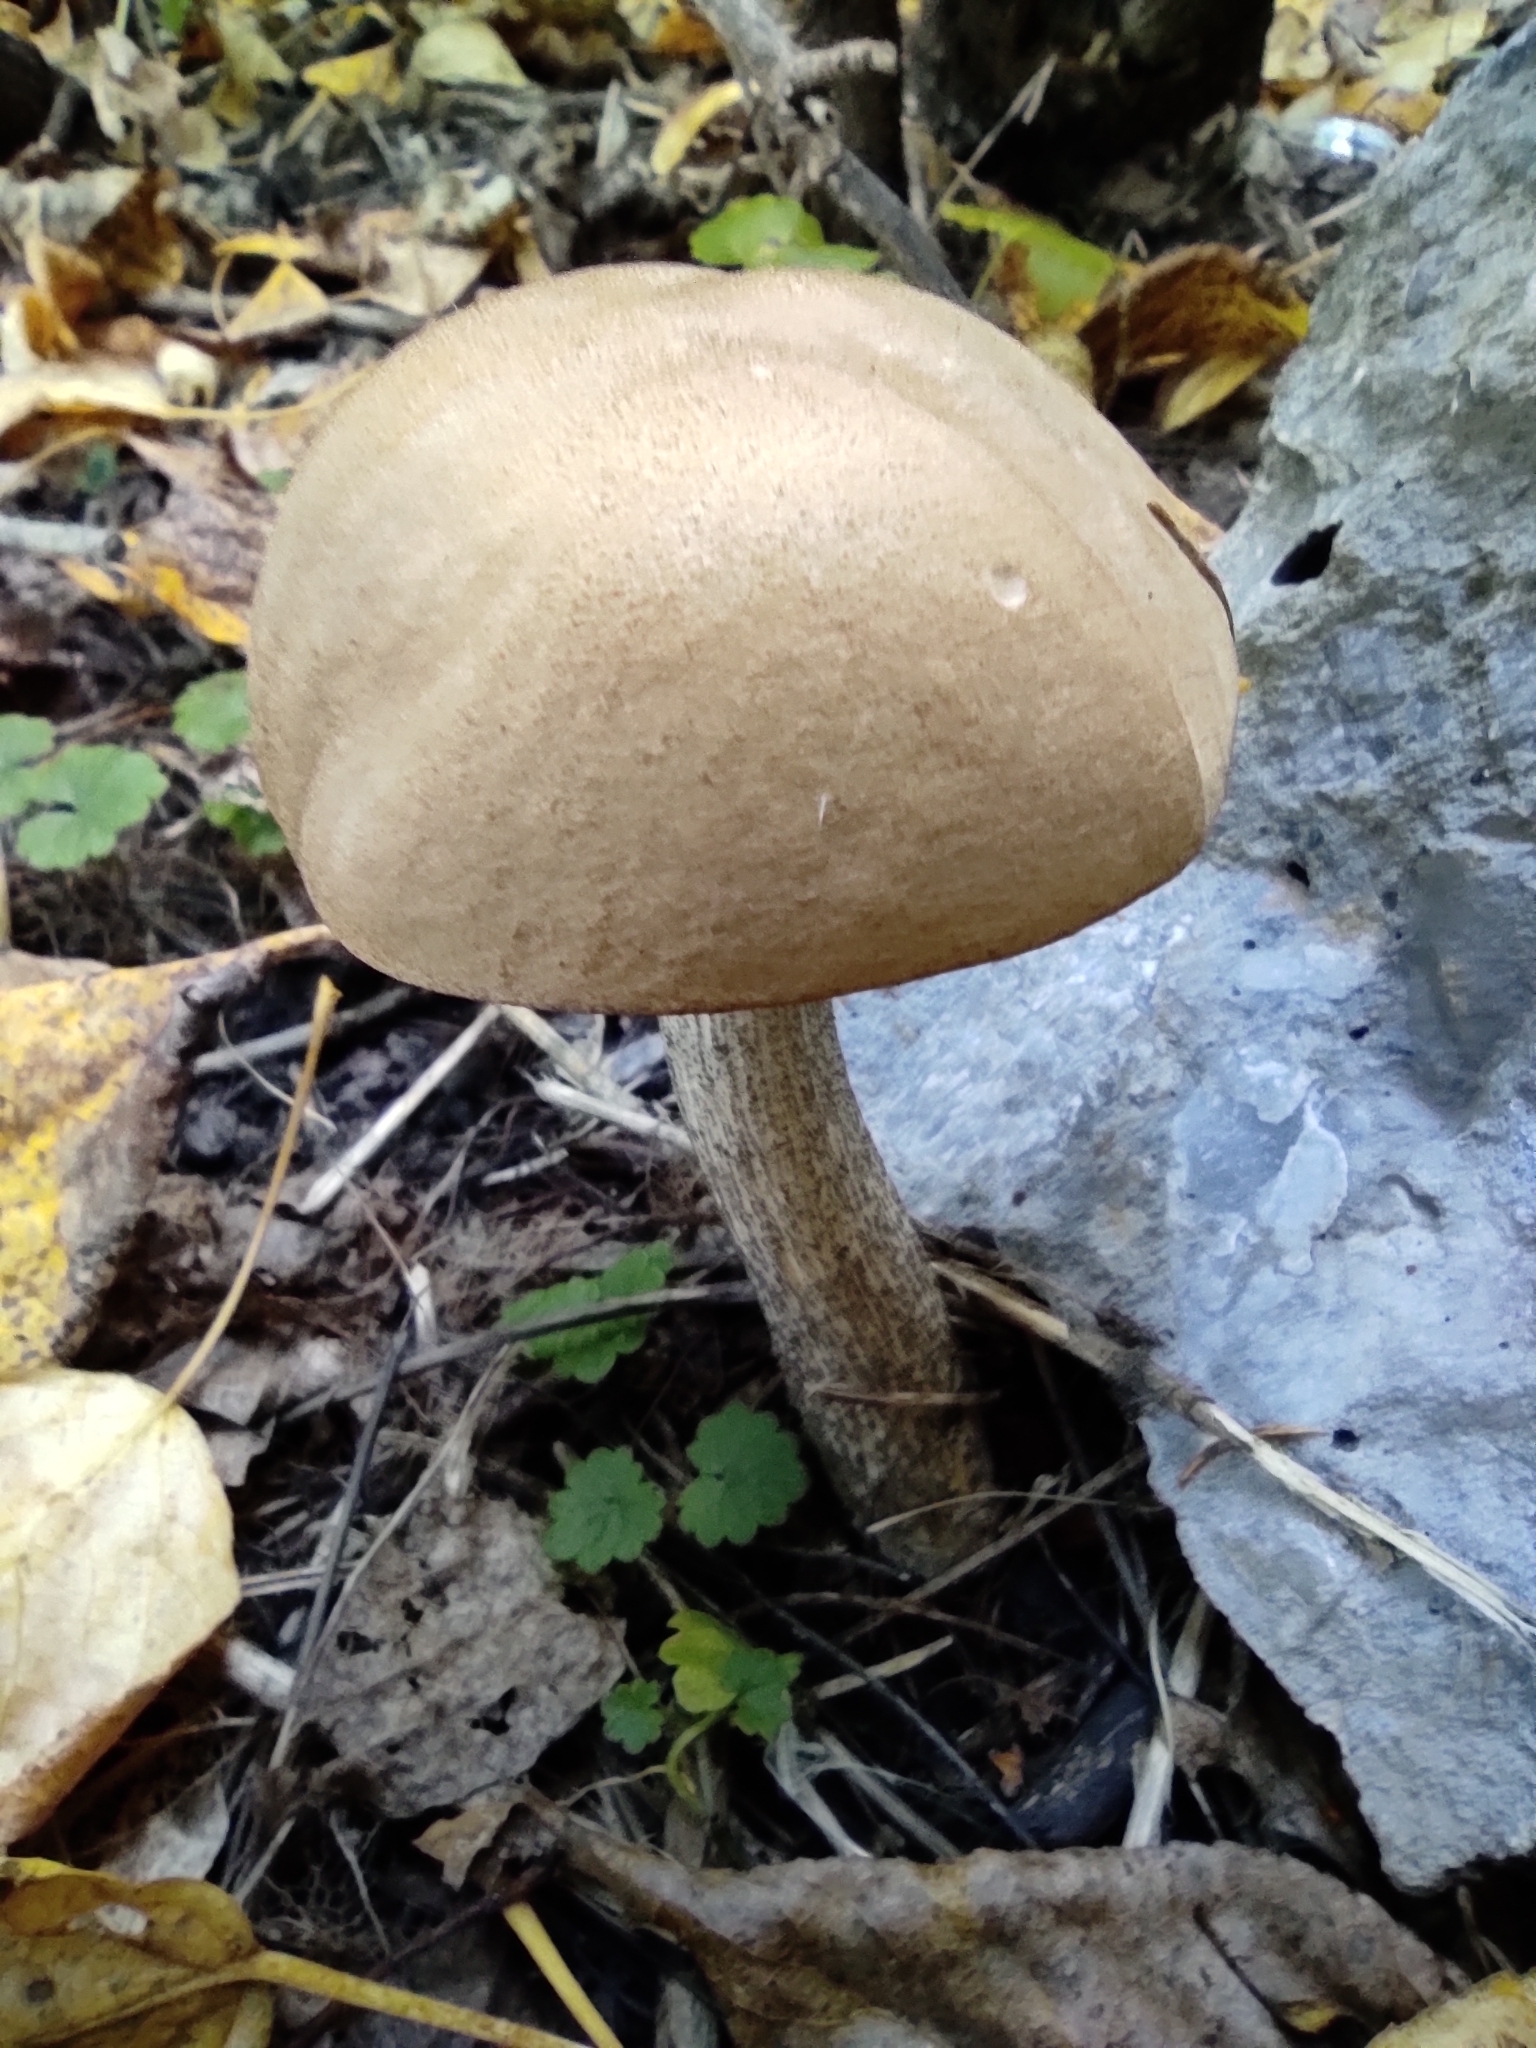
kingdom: Fungi
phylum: Basidiomycota
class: Agaricomycetes
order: Boletales
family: Boletaceae
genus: Leccinum
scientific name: Leccinum scabrum
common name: Blushing bolete
